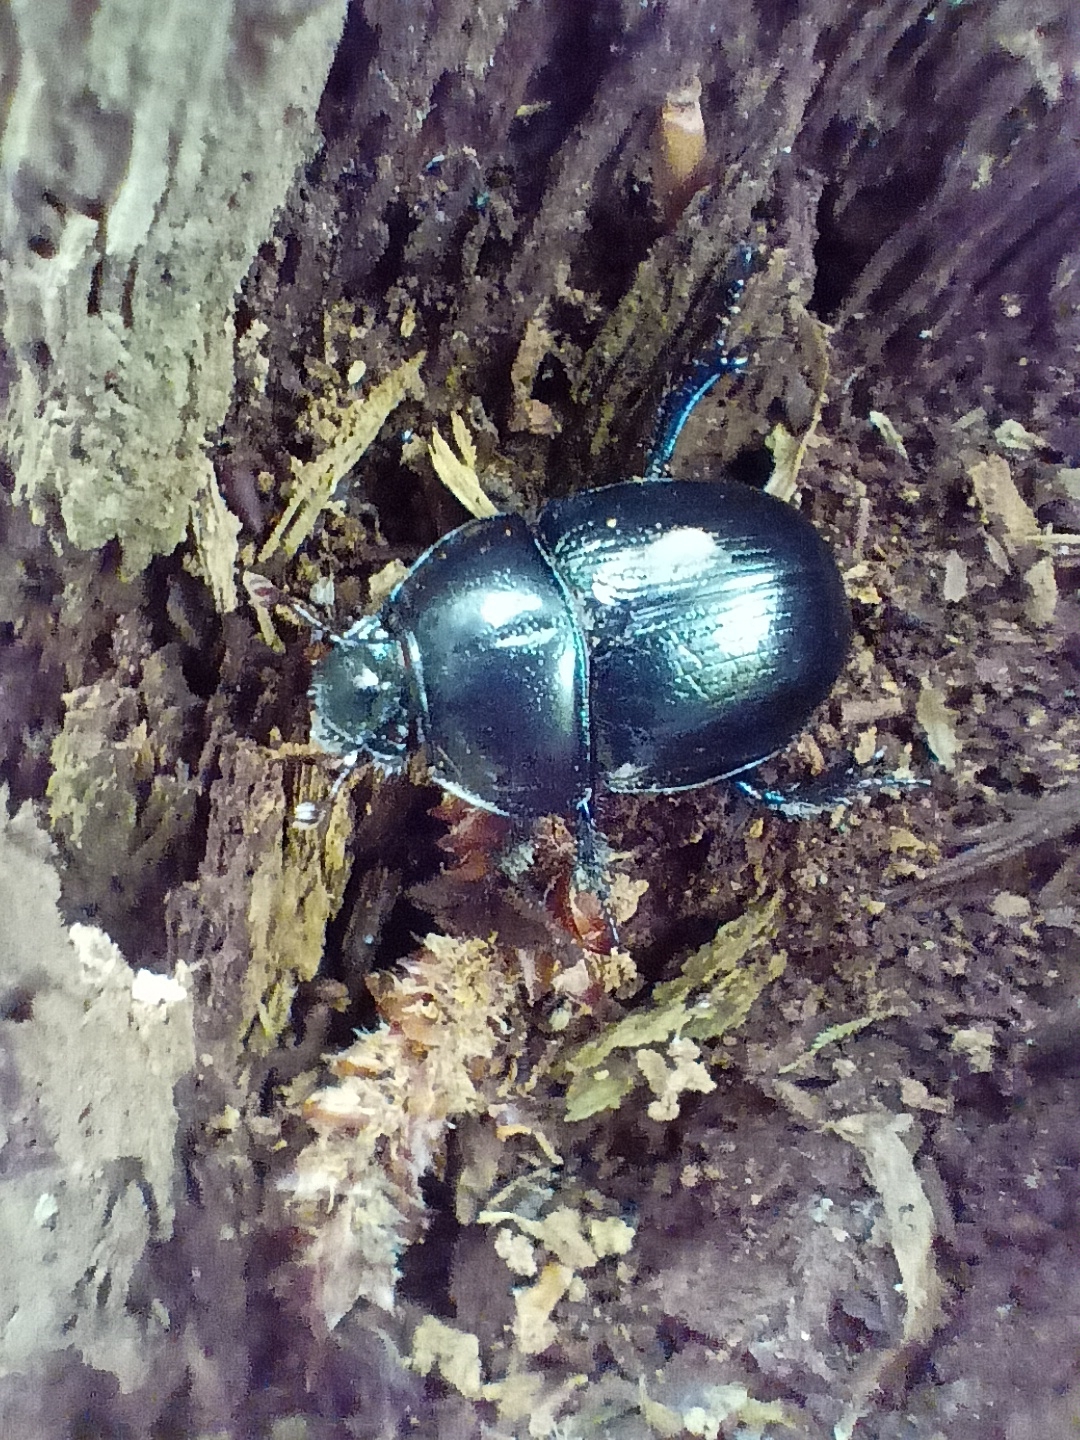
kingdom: Animalia
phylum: Arthropoda
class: Insecta
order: Coleoptera
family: Geotrupidae
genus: Anoplotrupes
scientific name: Anoplotrupes stercorosus
